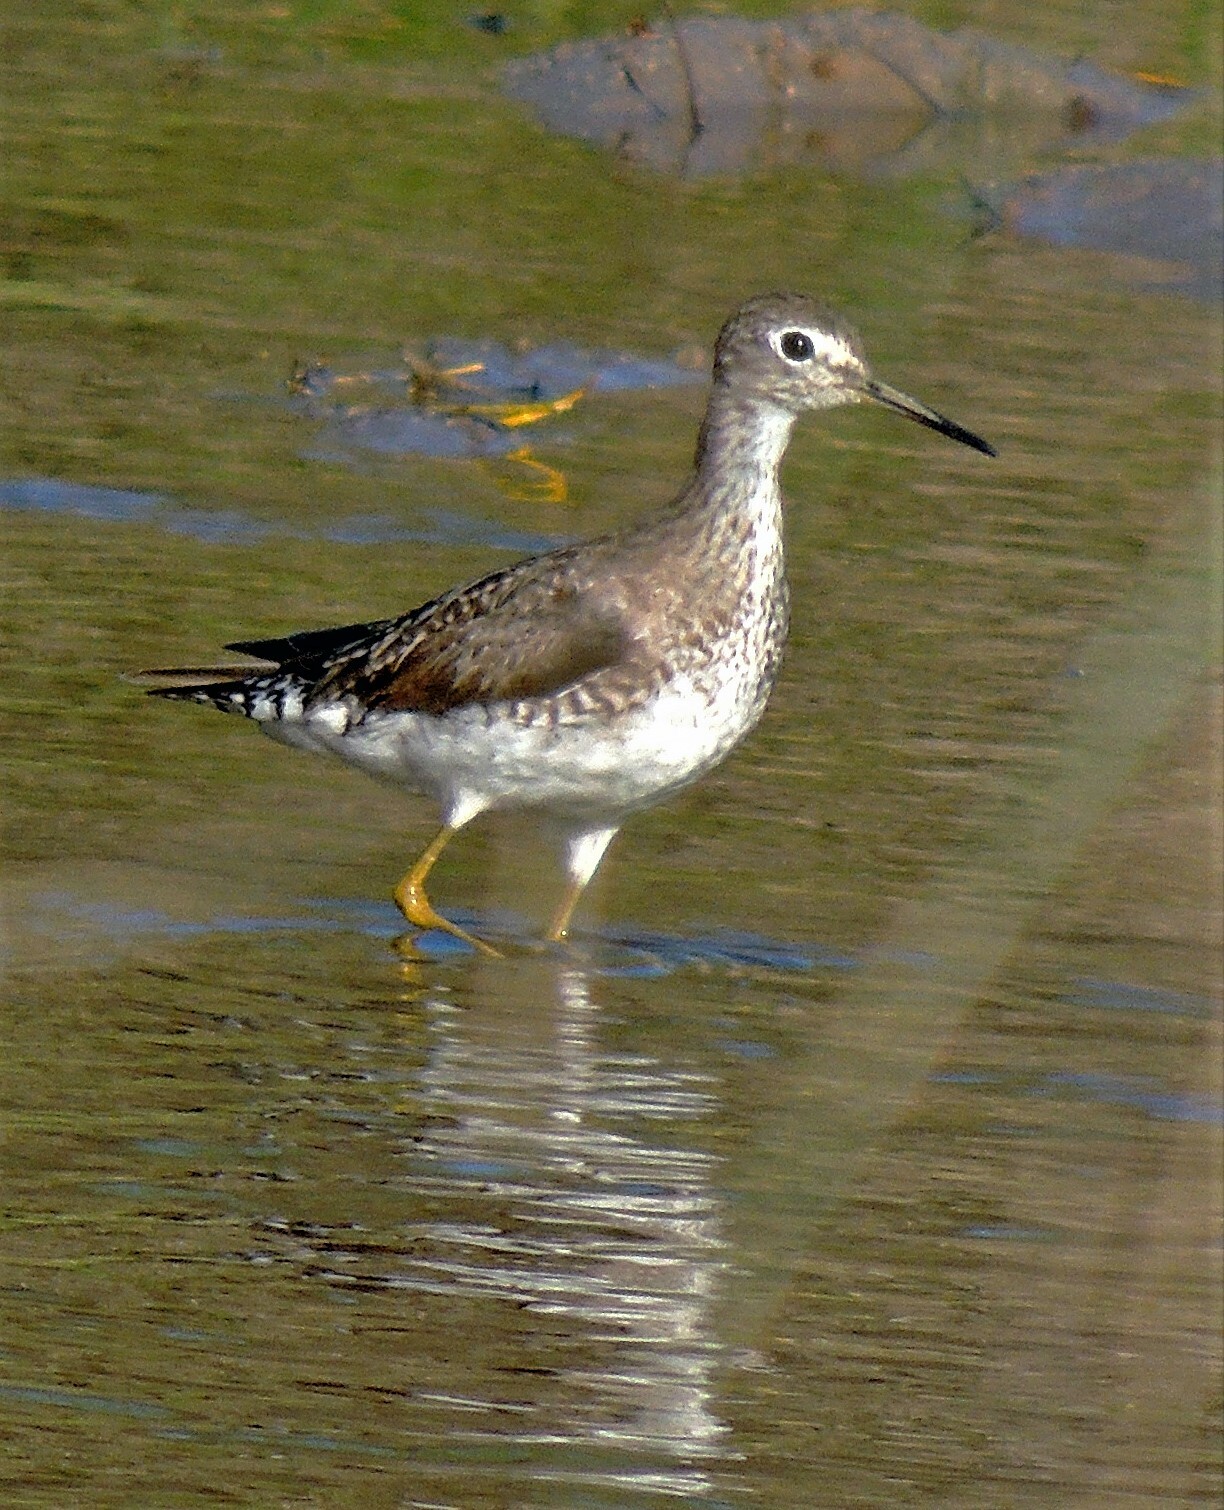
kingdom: Animalia
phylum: Chordata
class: Aves
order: Charadriiformes
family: Scolopacidae
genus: Tringa
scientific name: Tringa solitaria
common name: Solitary sandpiper
